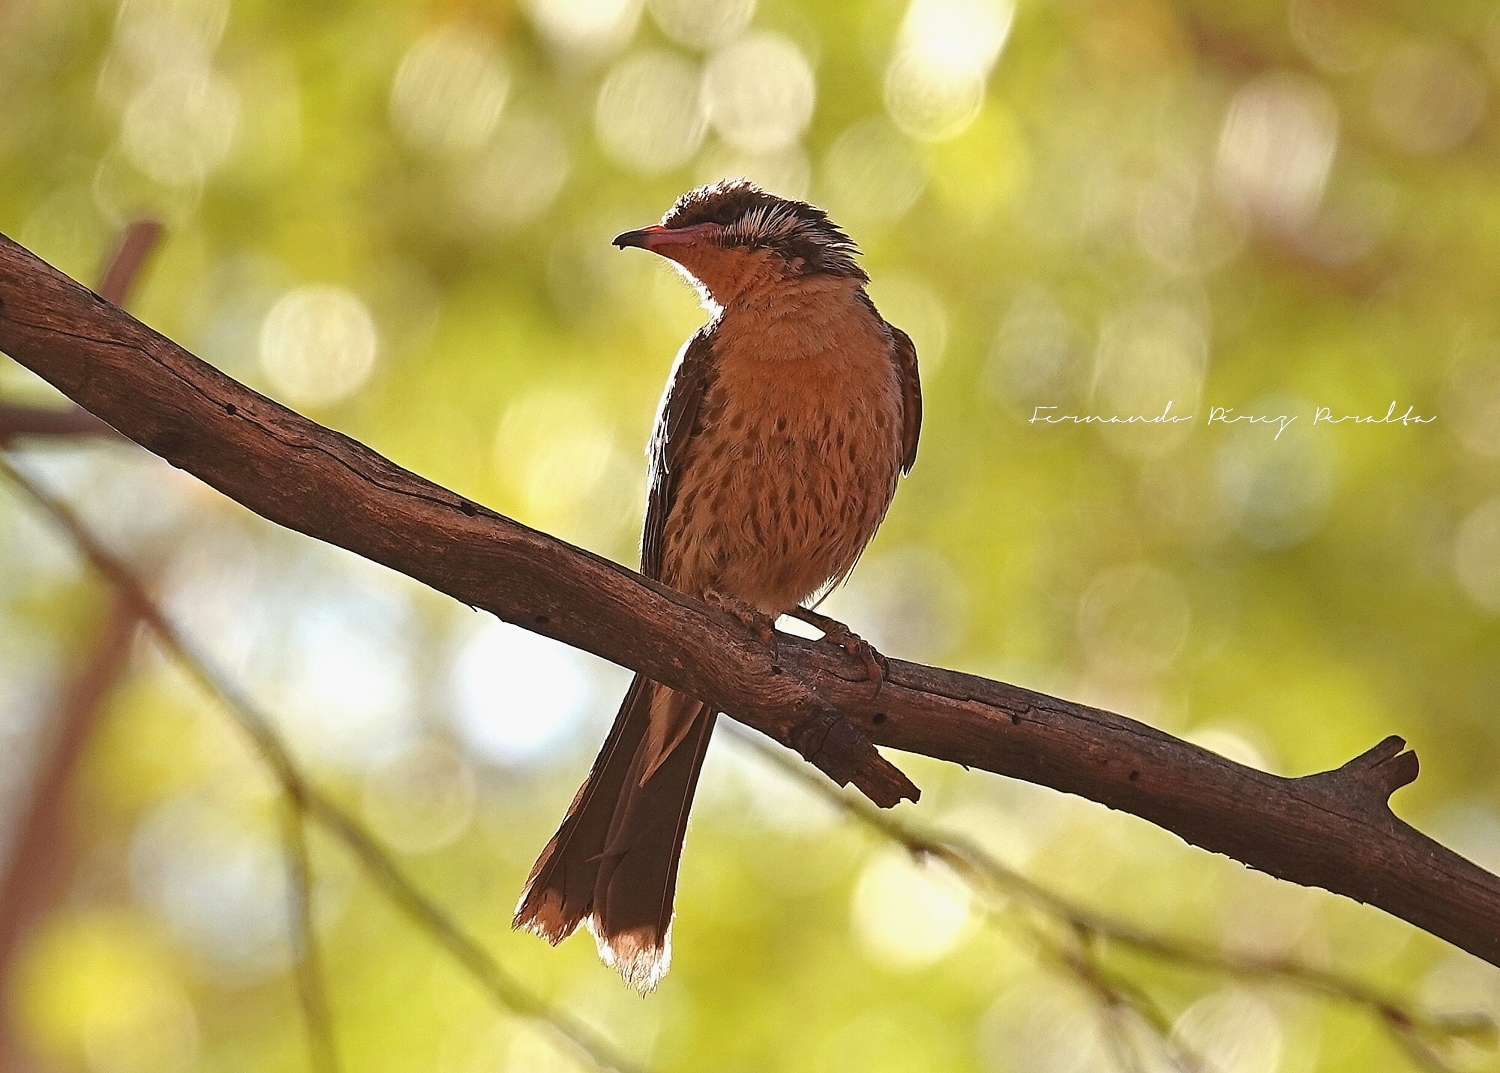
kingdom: Animalia
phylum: Chordata
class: Aves
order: Passeriformes
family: Meliphagidae
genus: Acanthagenys
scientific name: Acanthagenys rufogularis
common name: Spiny-cheeked honeyeater
